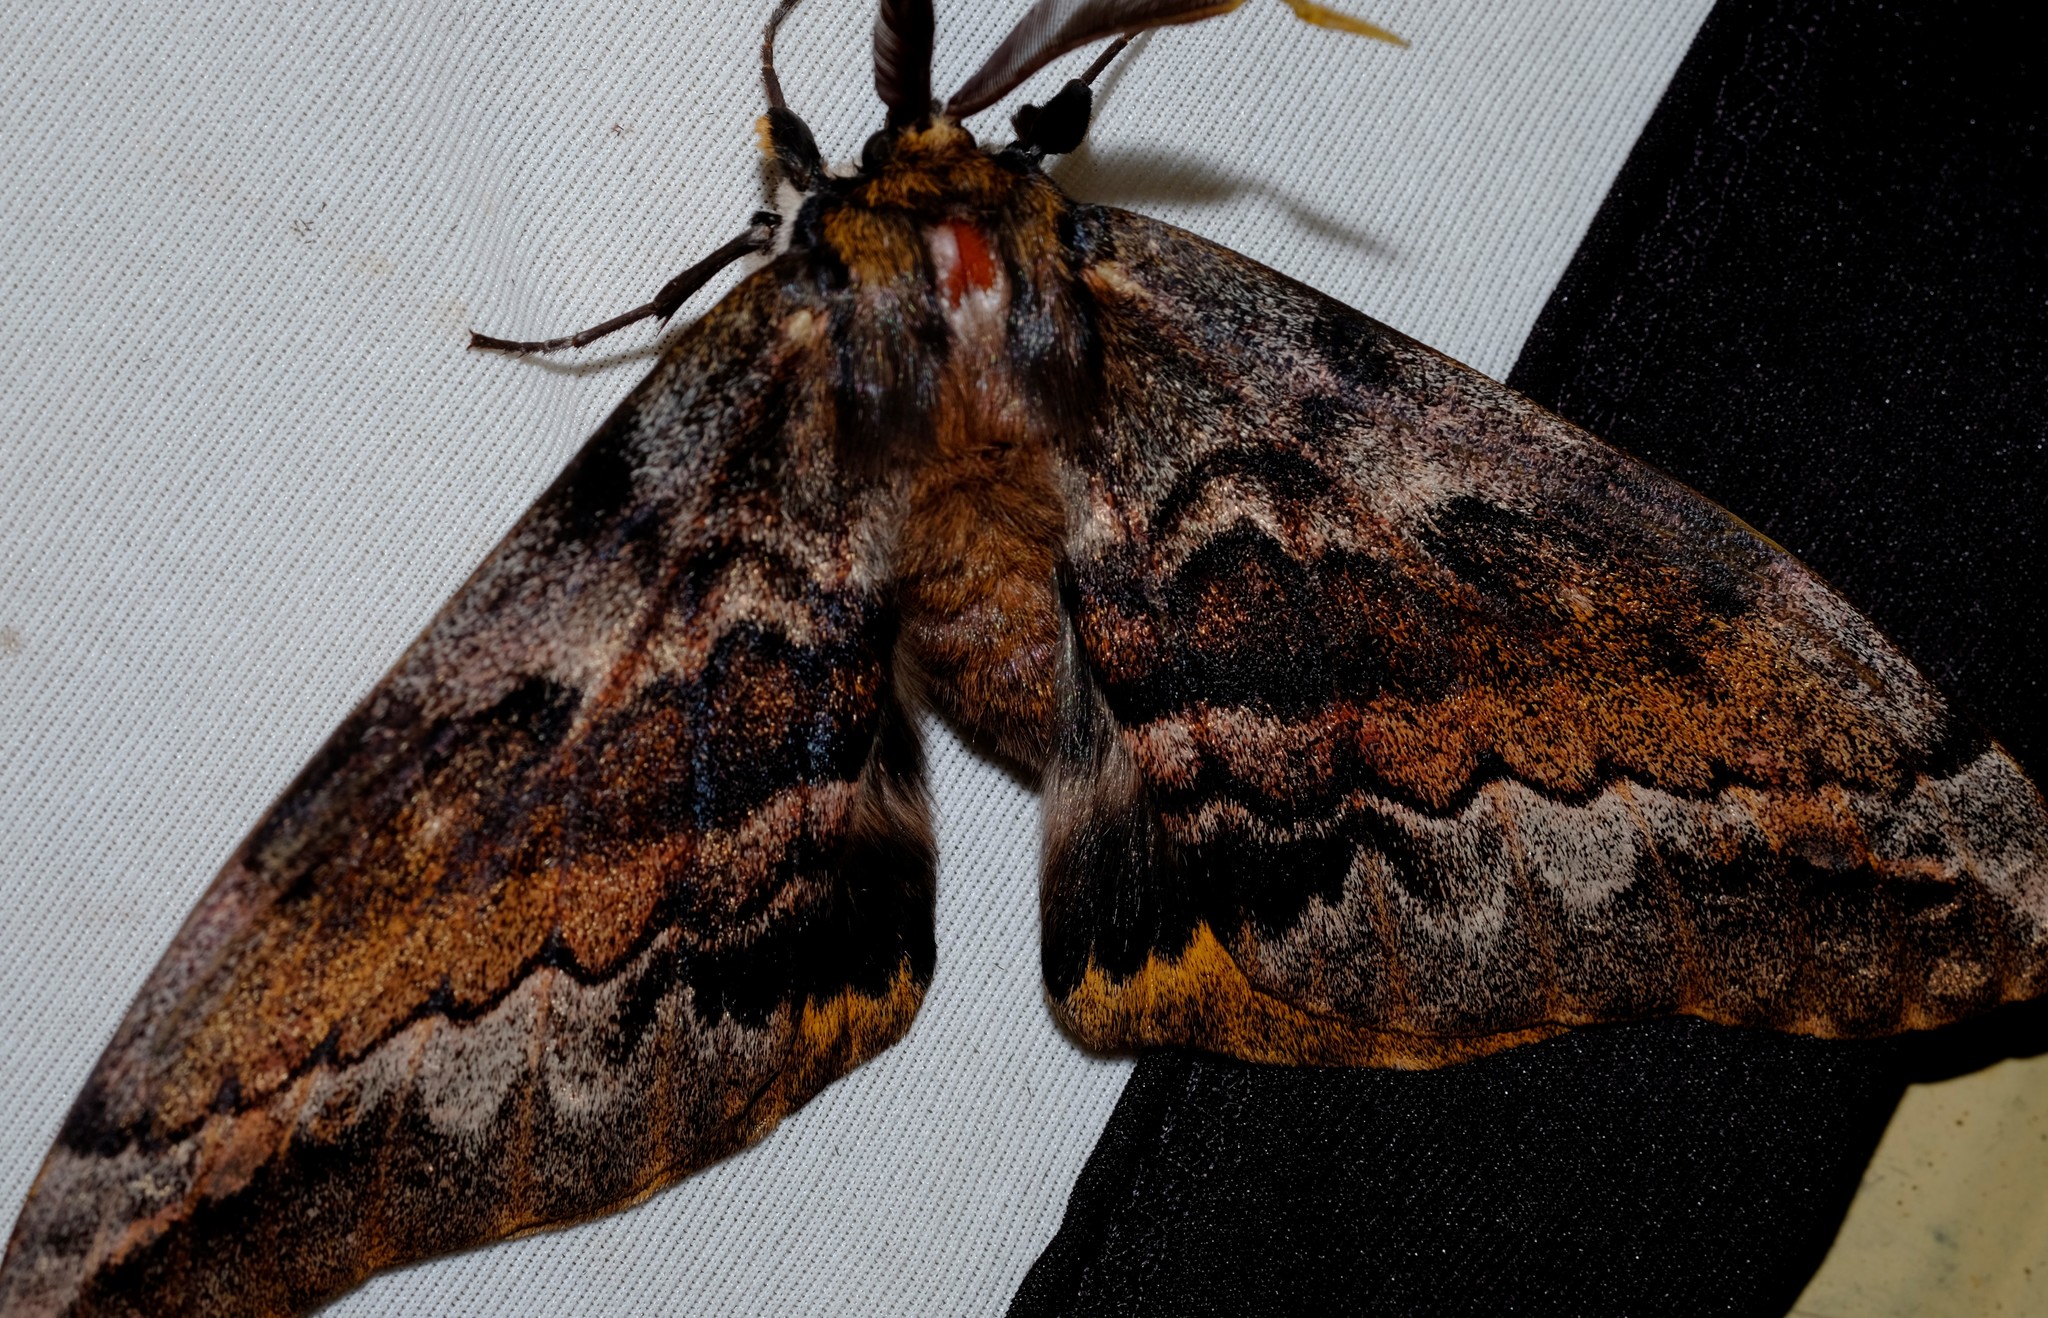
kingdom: Animalia
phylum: Arthropoda
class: Insecta
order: Lepidoptera
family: Anthelidae
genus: Chelepteryx
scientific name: Chelepteryx collesi
